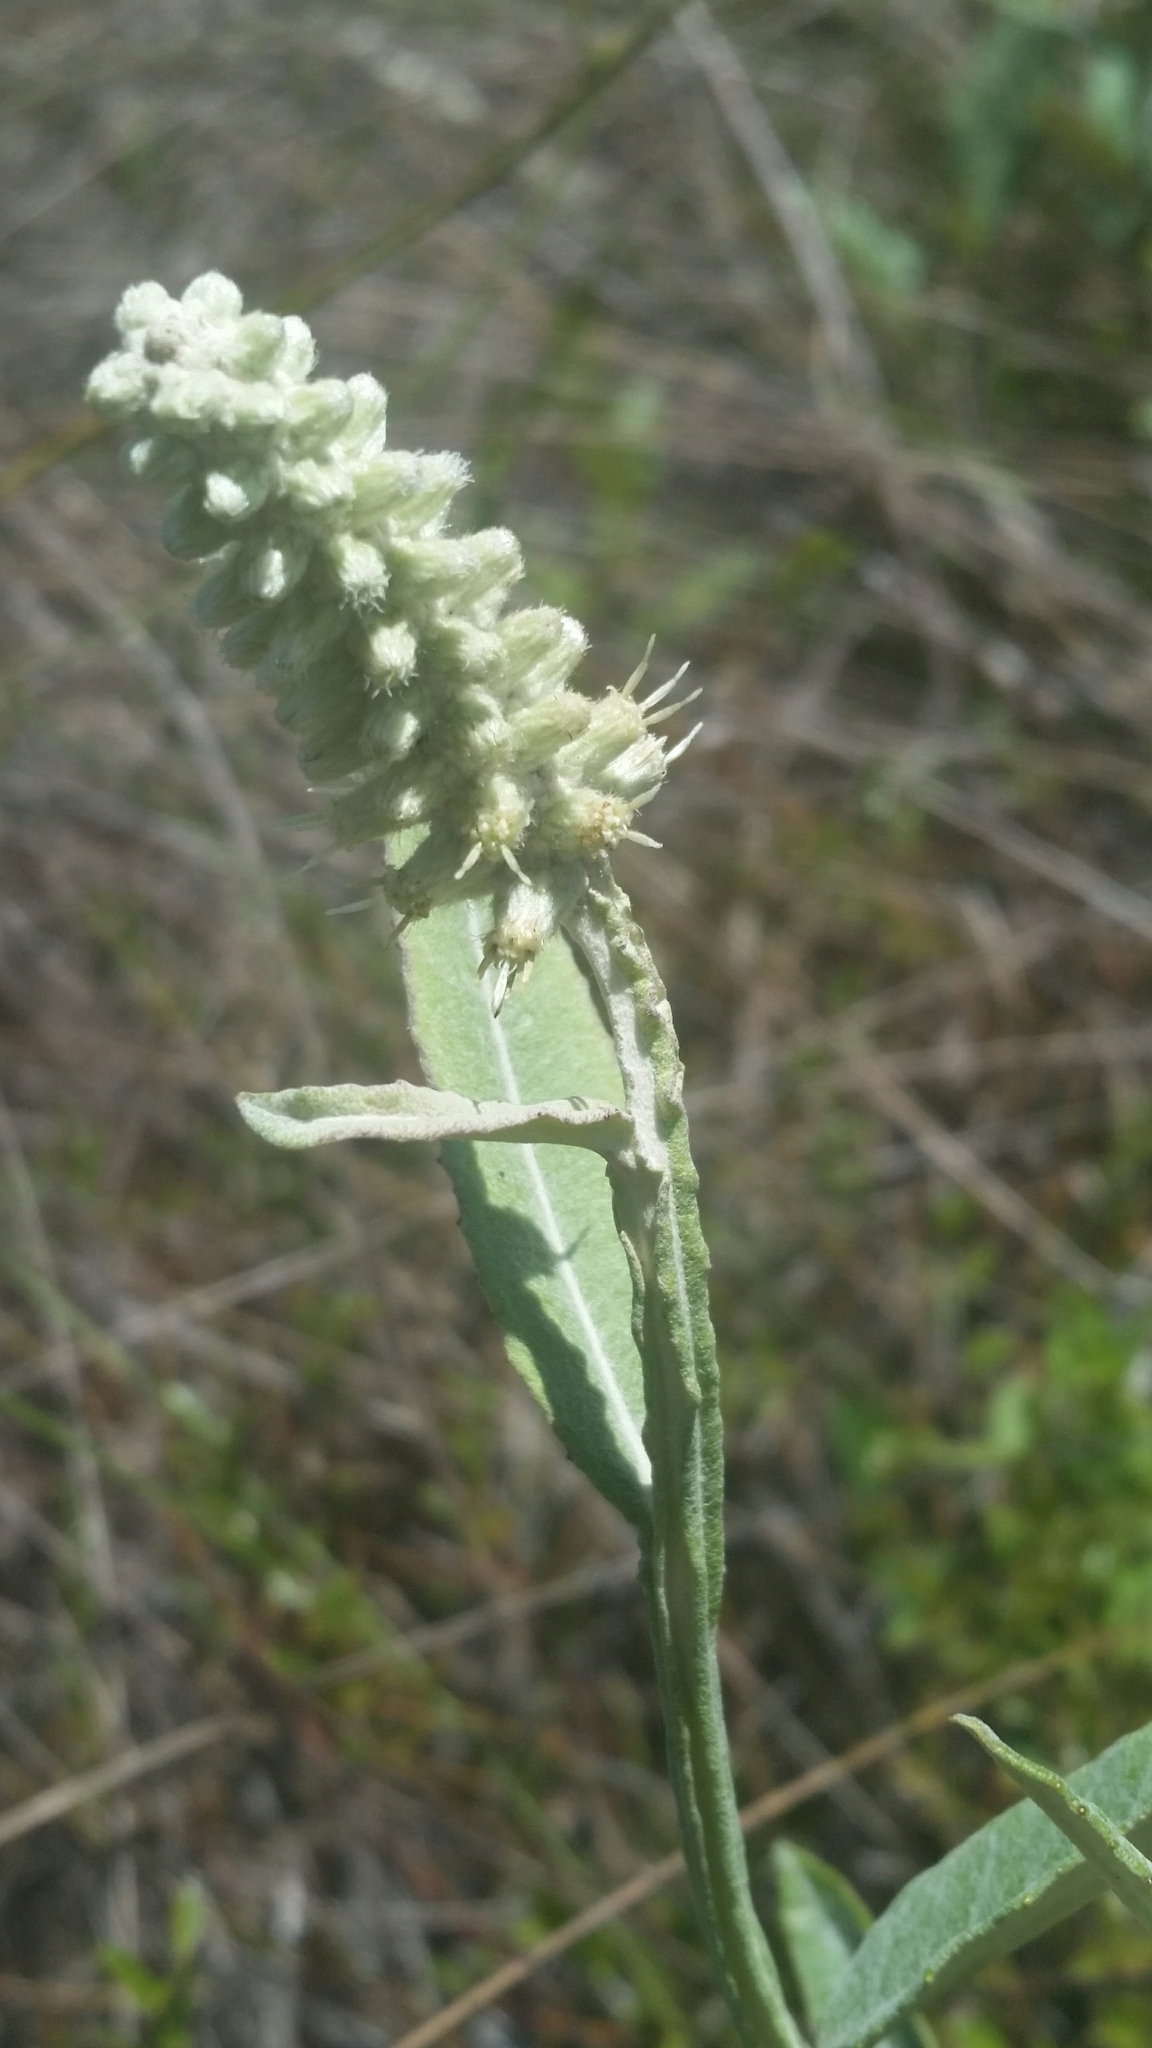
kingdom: Plantae
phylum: Tracheophyta
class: Magnoliopsida
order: Asterales
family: Asteraceae
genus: Pterocaulon
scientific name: Pterocaulon pycnostachyum
